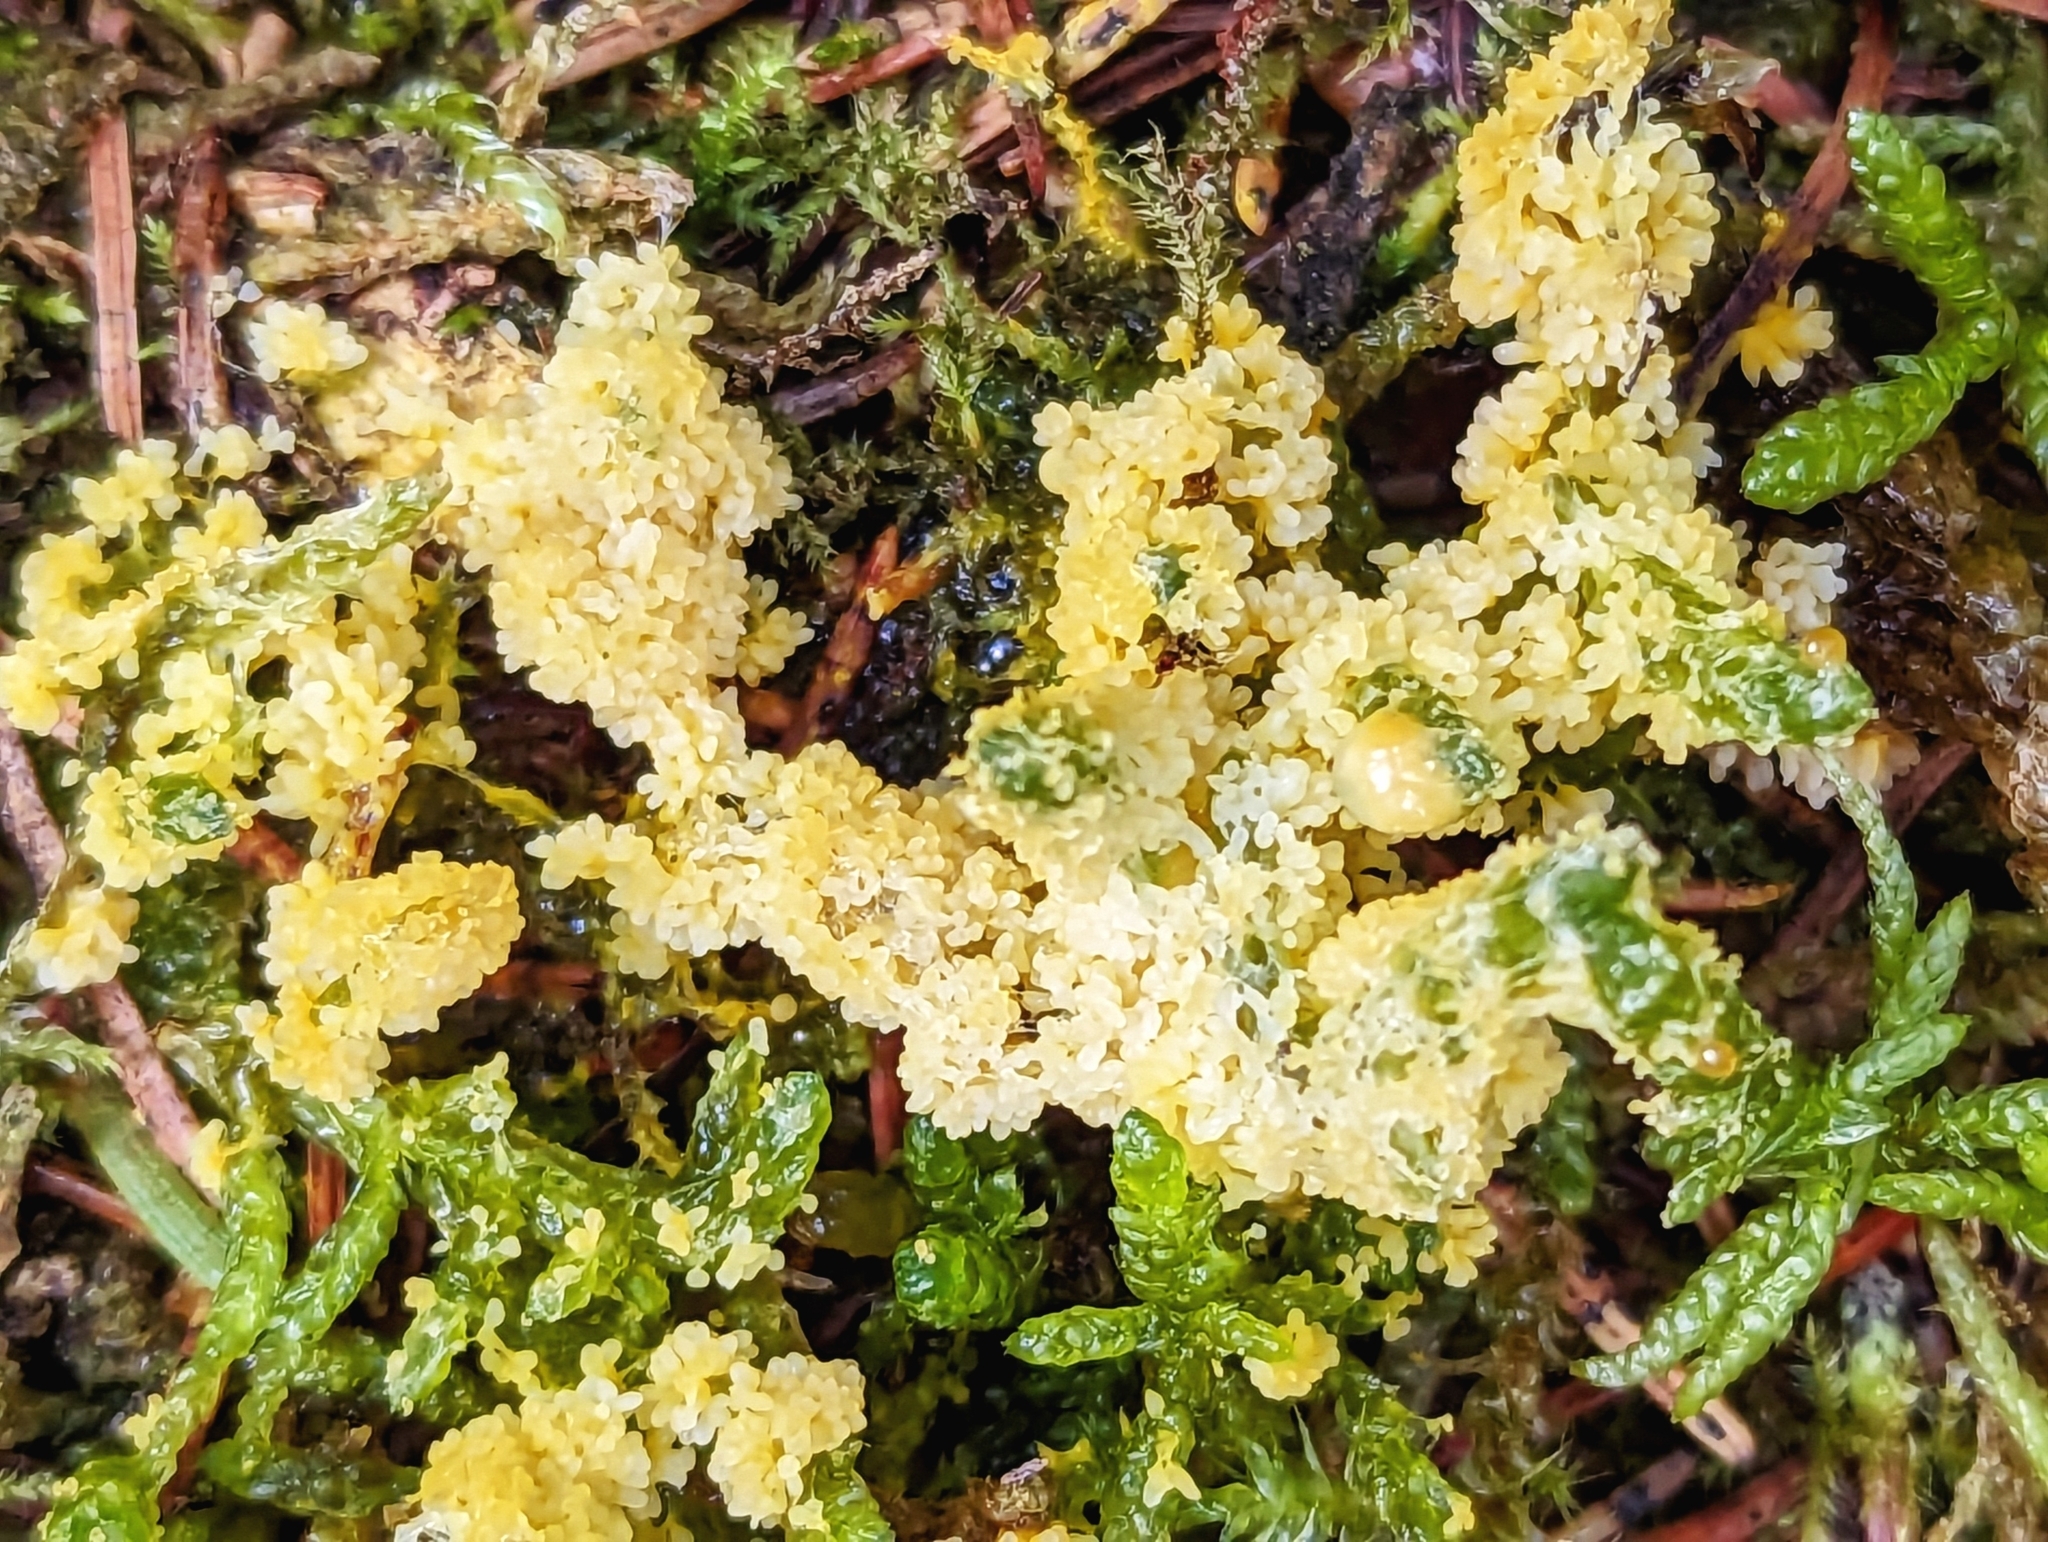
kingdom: Protozoa
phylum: Mycetozoa
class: Myxomycetes
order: Physarales
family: Physaraceae
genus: Fuligo
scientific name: Fuligo septica
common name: Dog vomit slime mold
